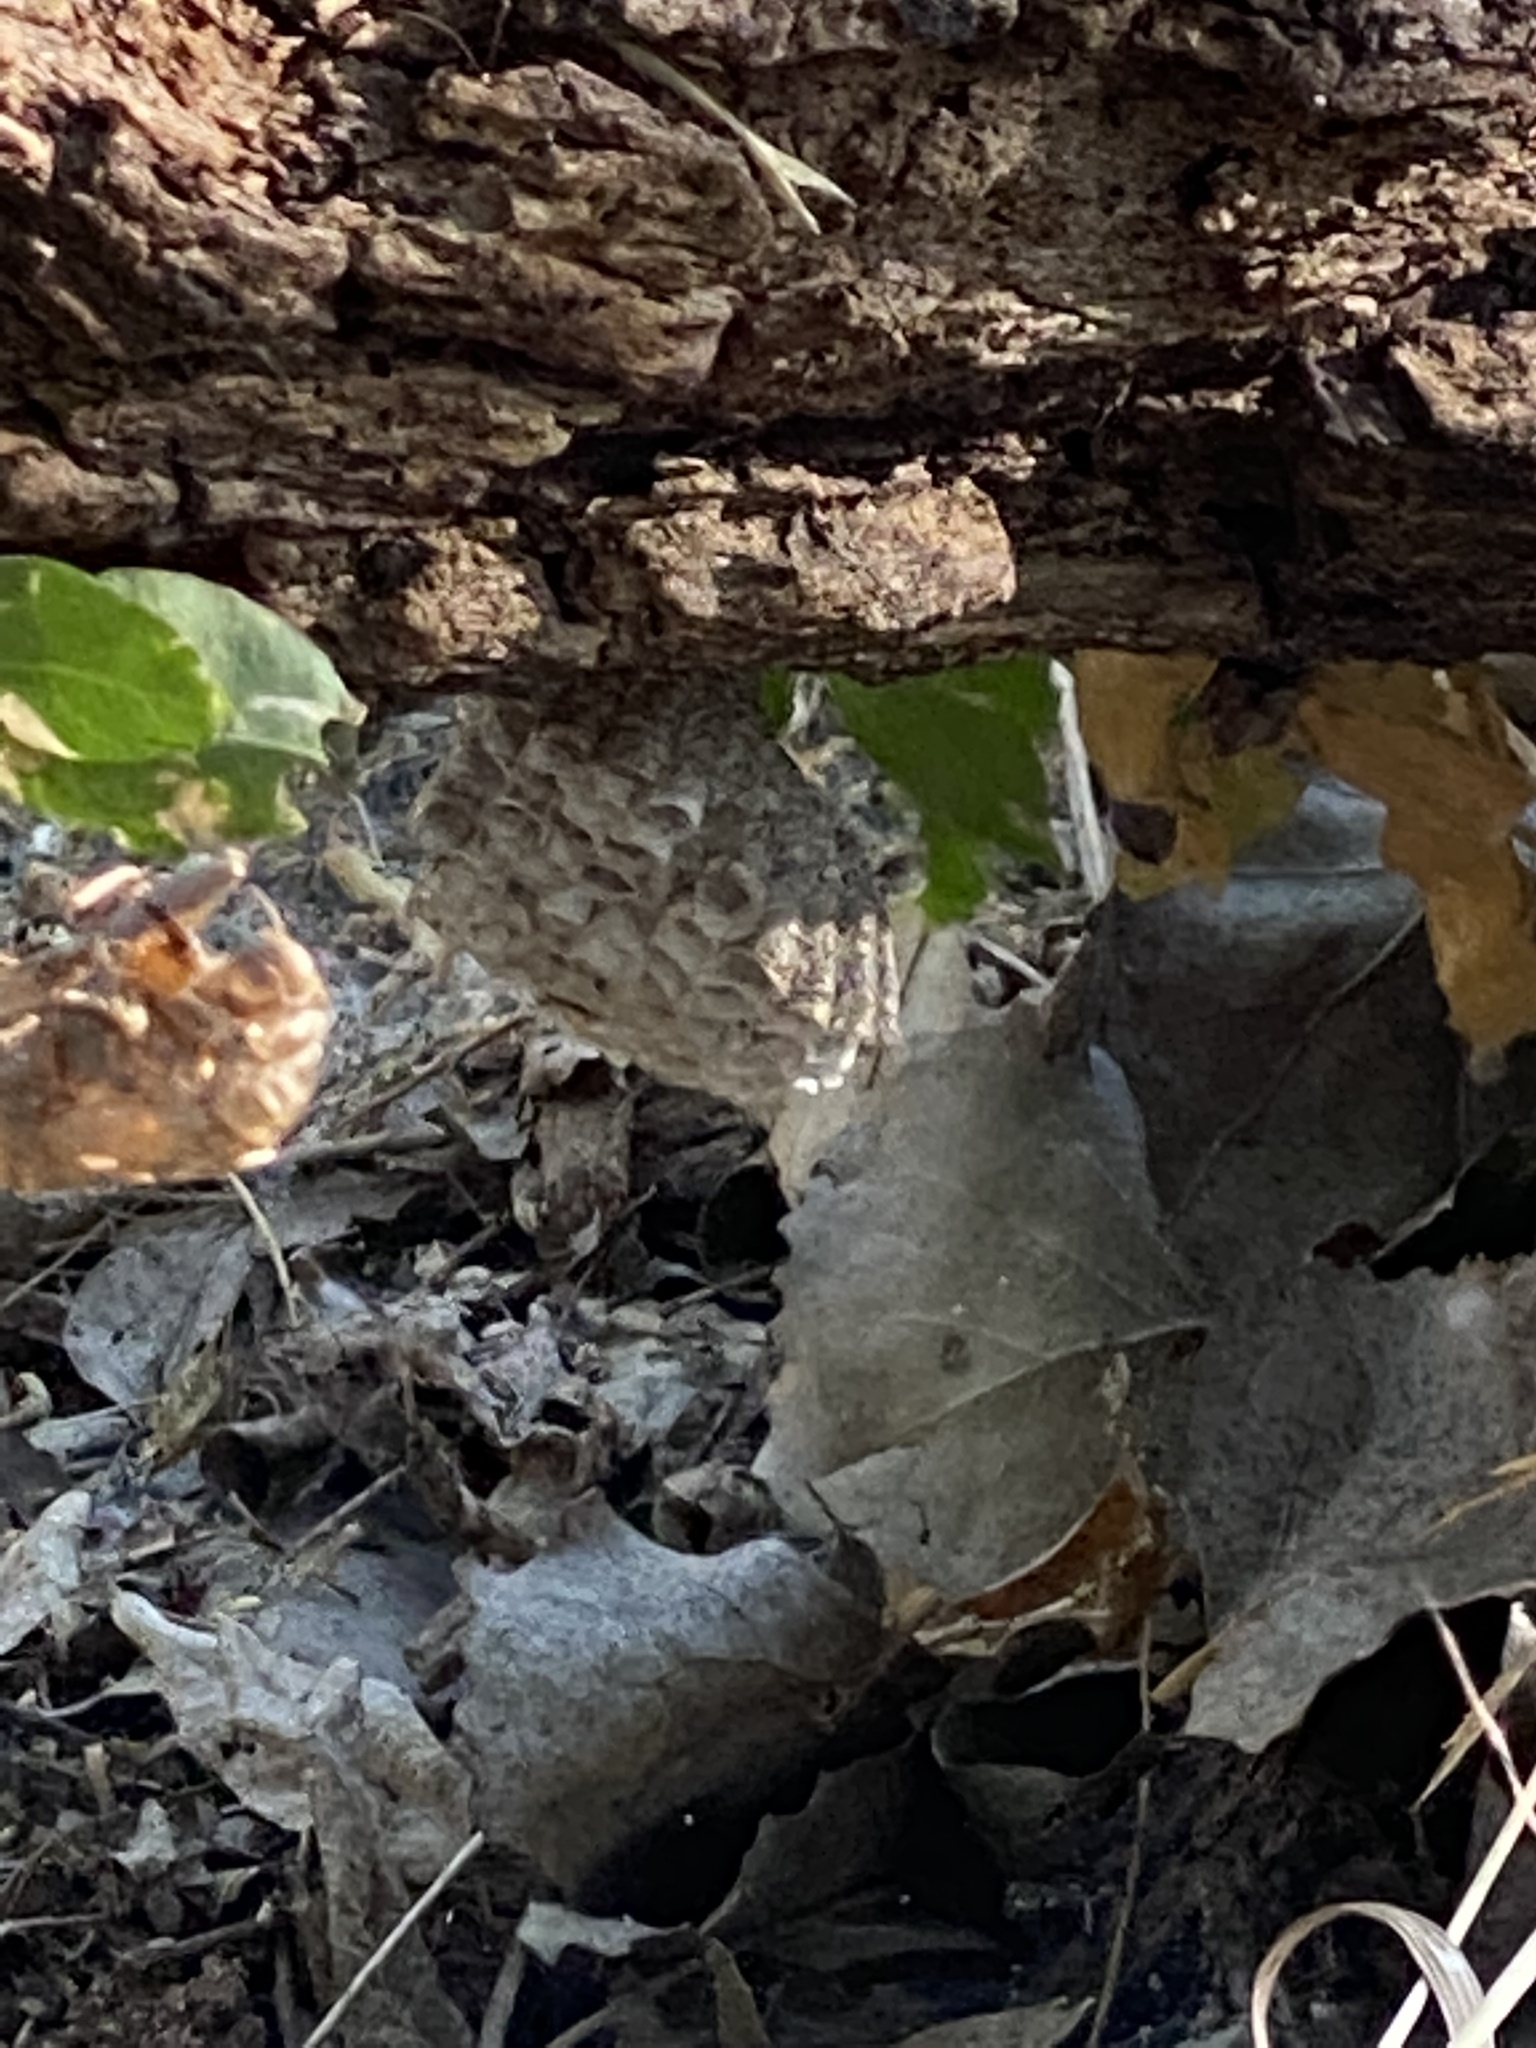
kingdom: Animalia
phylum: Arthropoda
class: Insecta
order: Hymenoptera
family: Eumenidae
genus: Polistes
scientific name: Polistes
